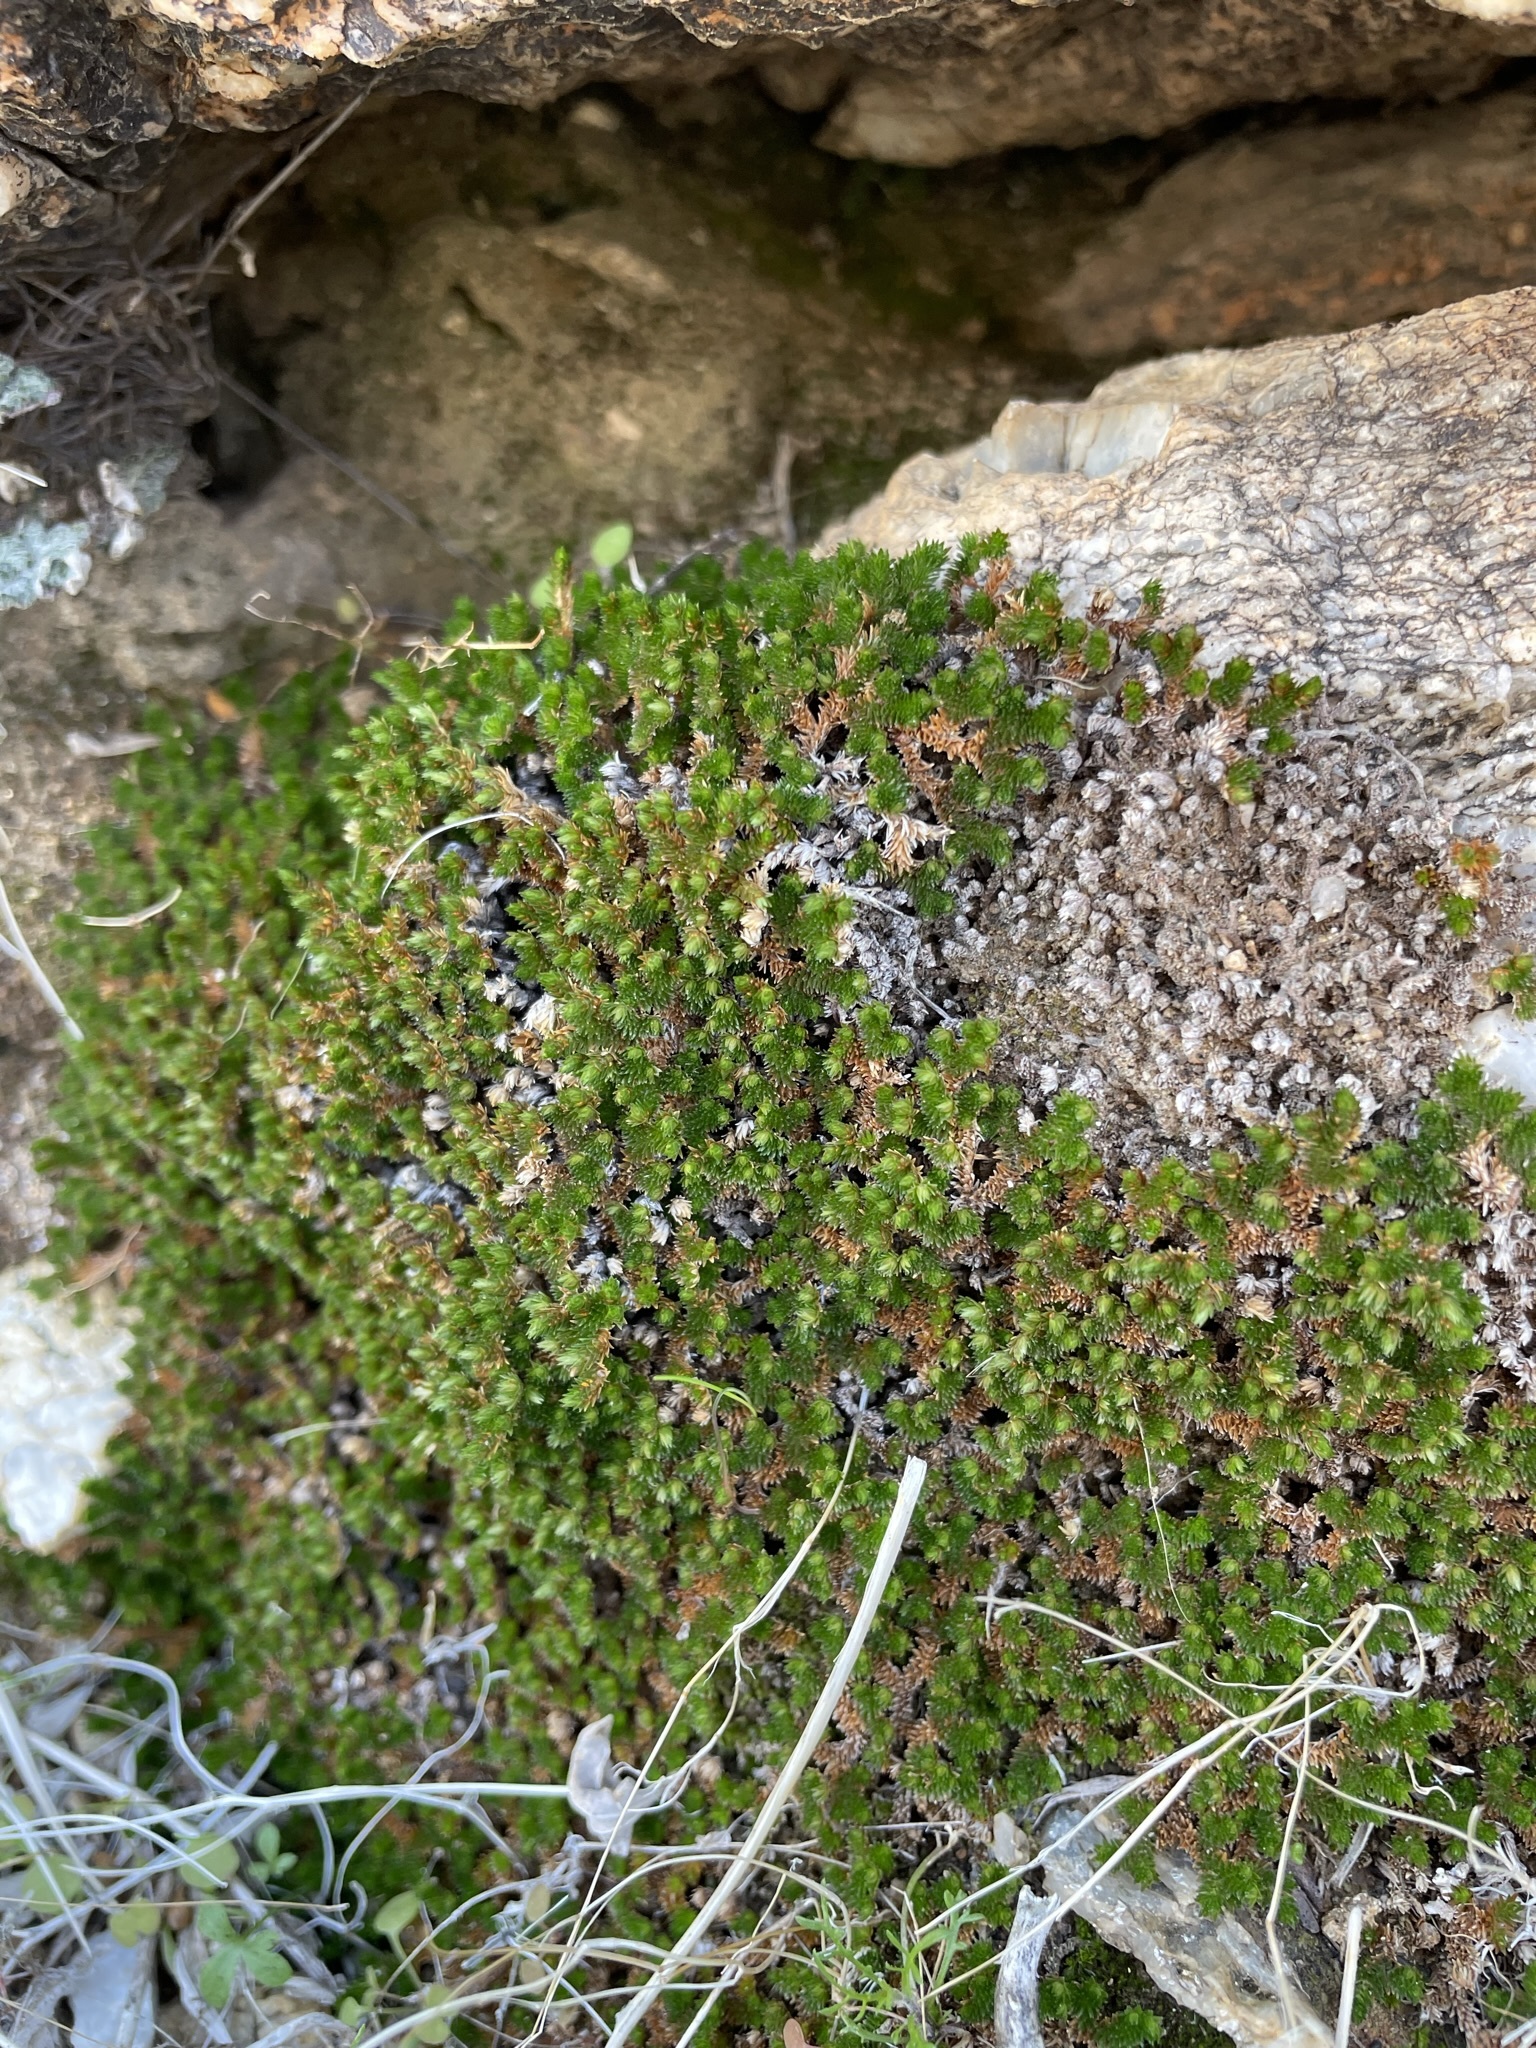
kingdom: Plantae
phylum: Tracheophyta
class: Lycopodiopsida
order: Selaginellales
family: Selaginellaceae
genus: Selaginella
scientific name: Selaginella eremophila
